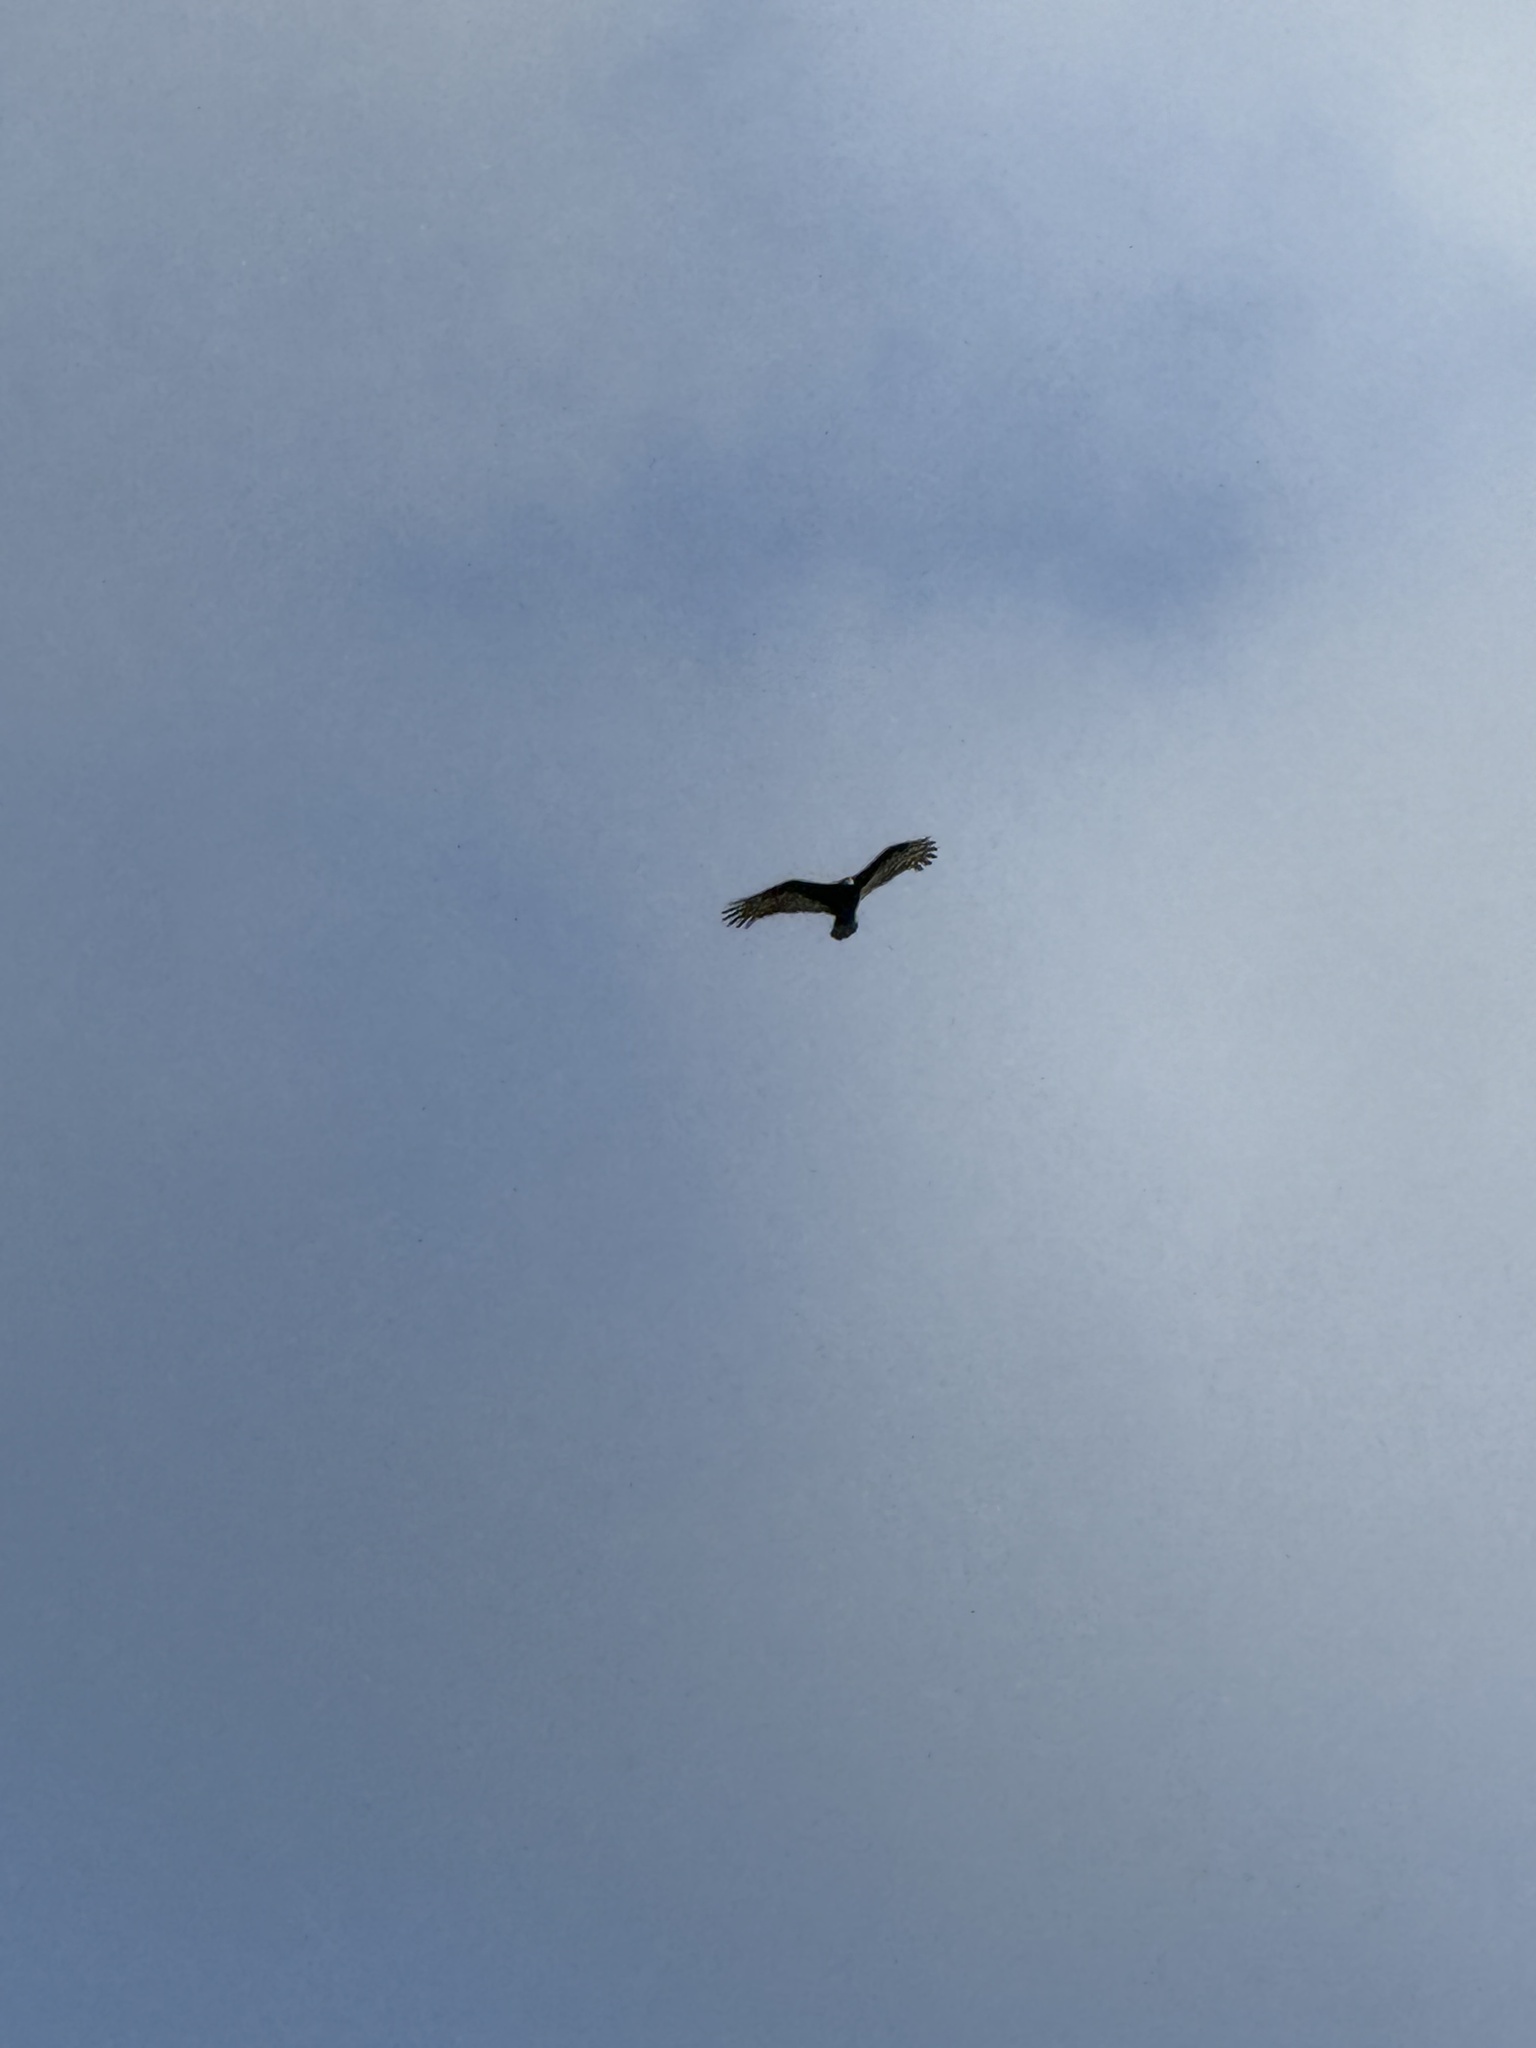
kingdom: Animalia
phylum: Chordata
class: Aves
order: Accipitriformes
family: Accipitridae
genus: Buteo
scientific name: Buteo jamaicensis
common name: Red-tailed hawk
